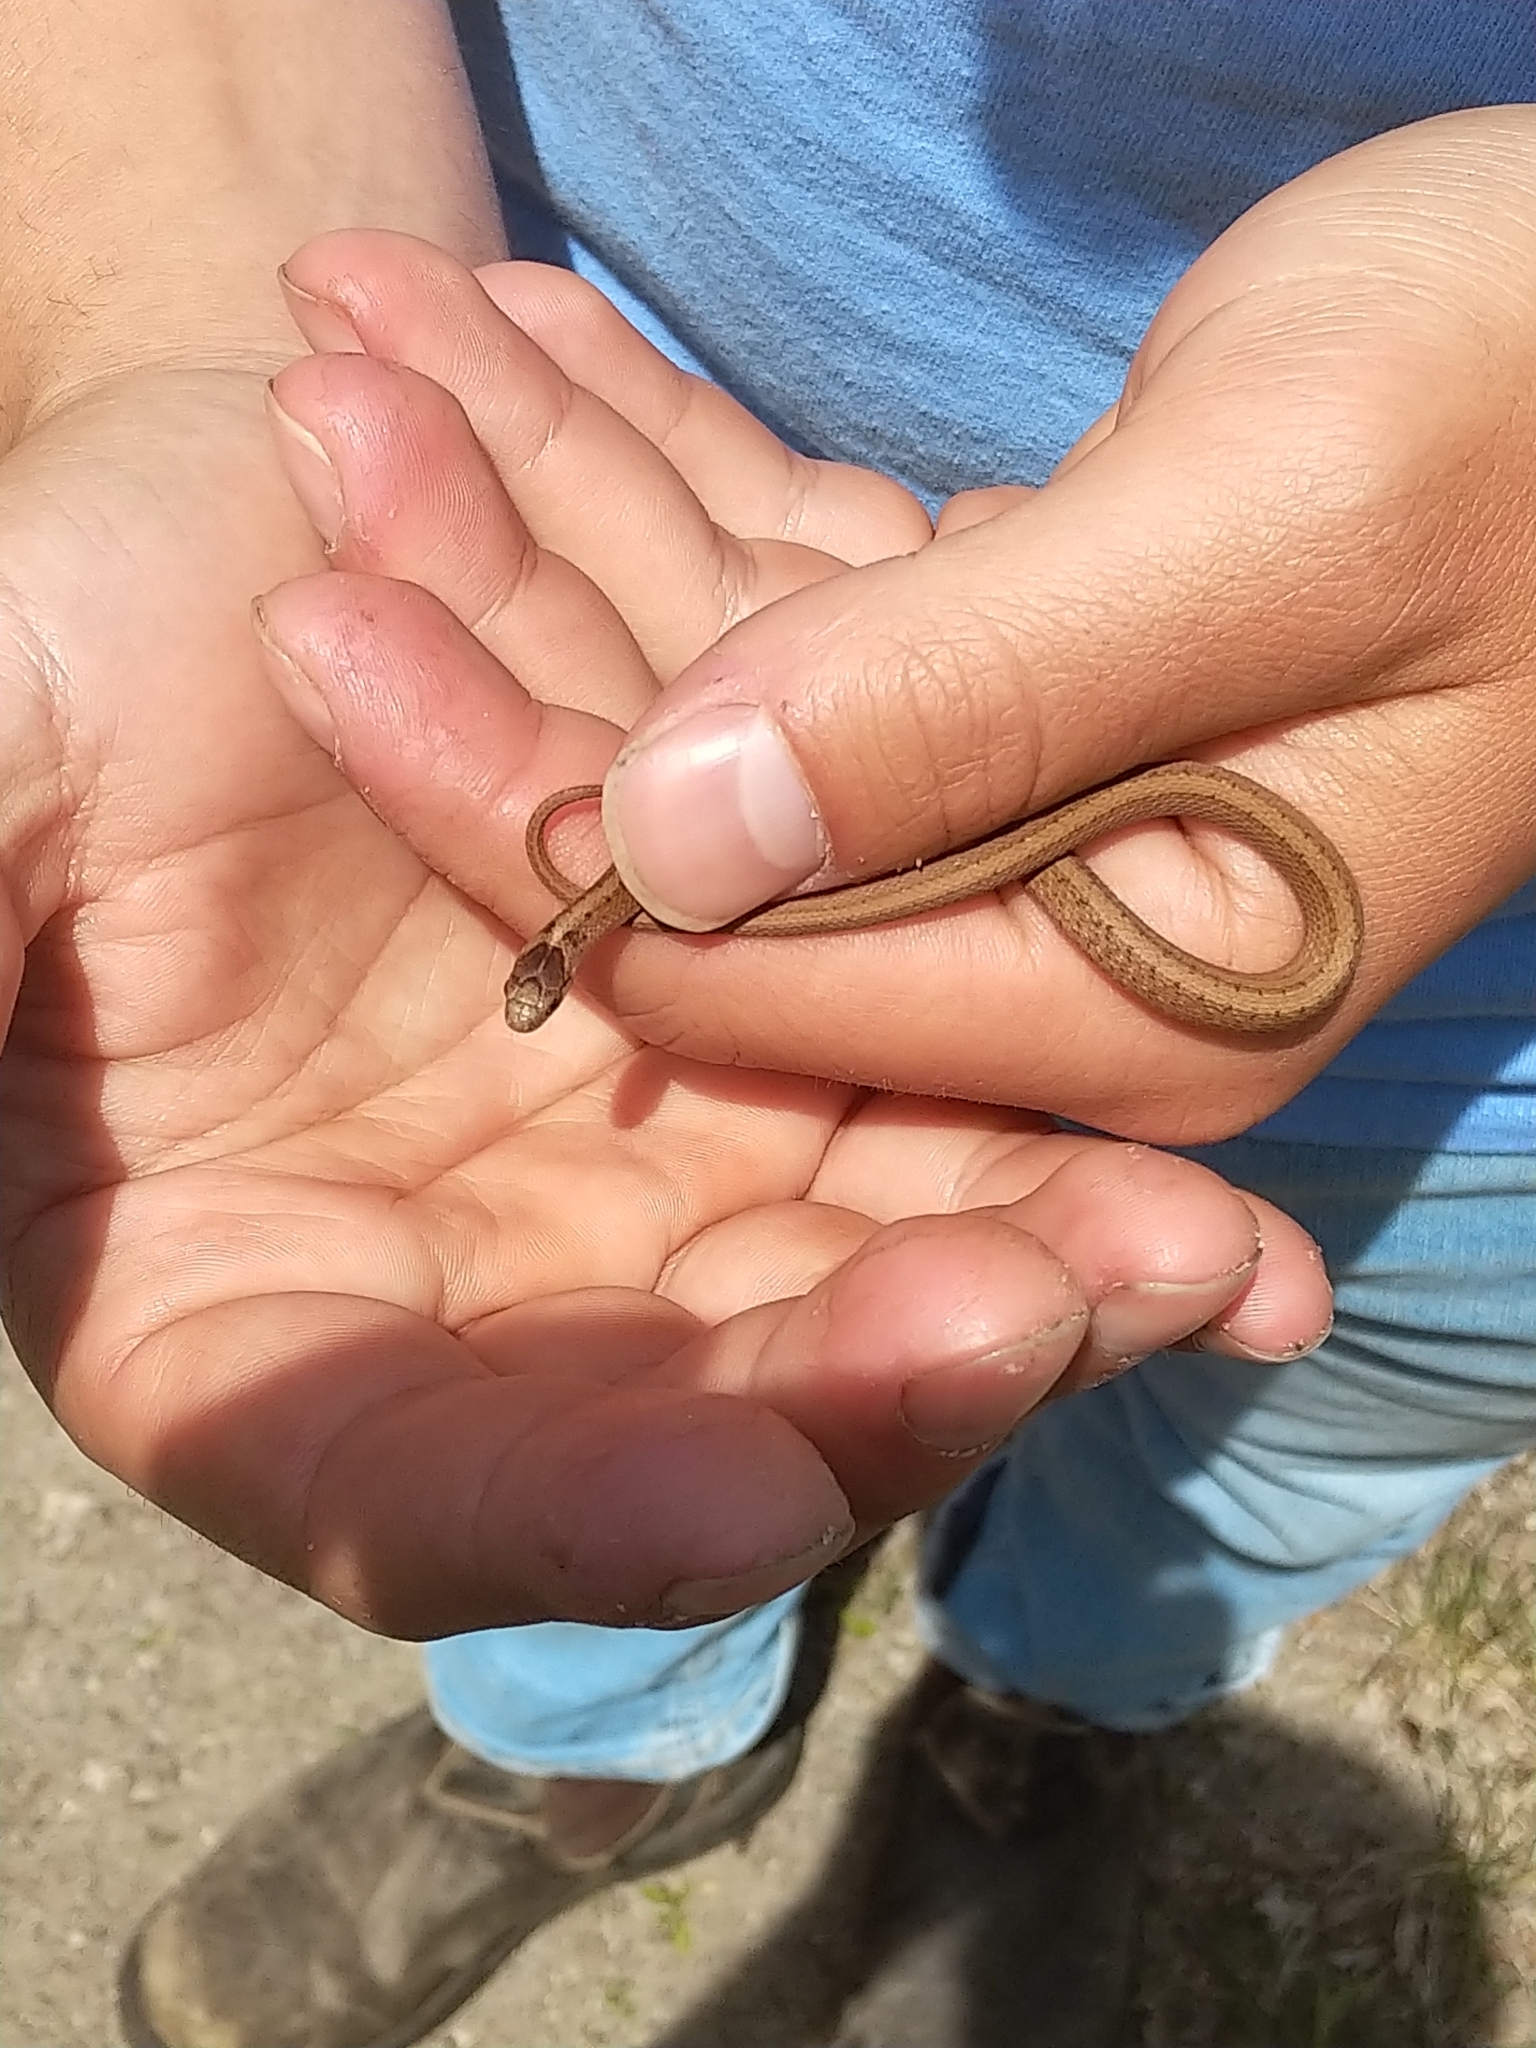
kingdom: Animalia
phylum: Chordata
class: Squamata
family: Colubridae
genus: Storeria
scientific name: Storeria dekayi
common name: (dekay’s) brown snake
